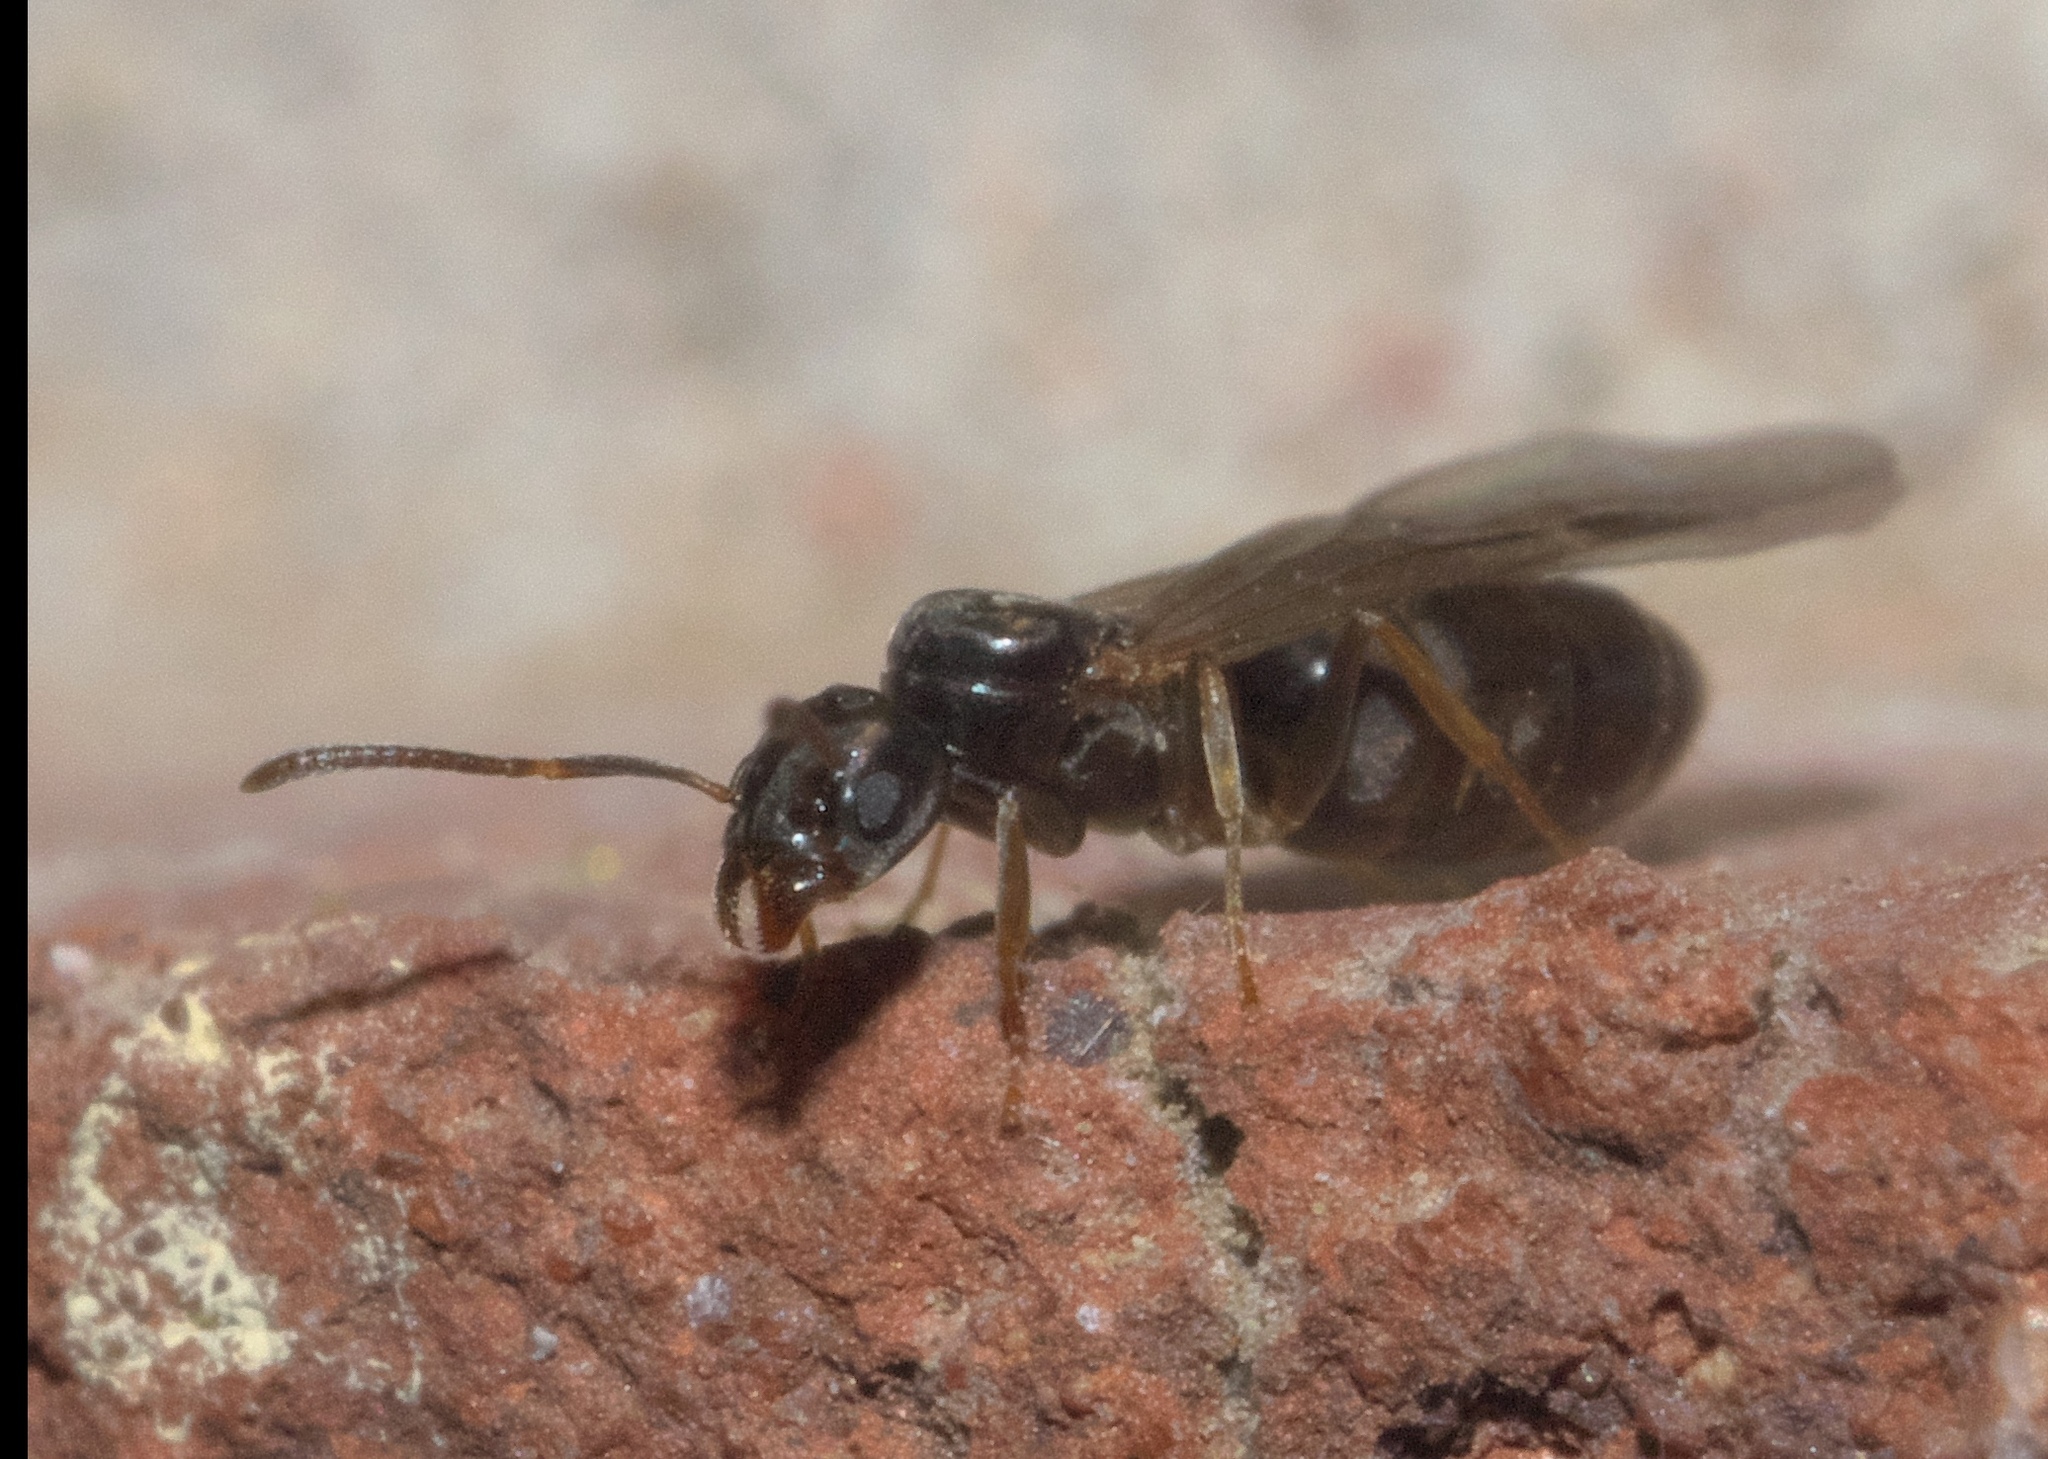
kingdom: Animalia
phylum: Arthropoda
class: Insecta
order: Hymenoptera
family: Formicidae
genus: Tapinoma
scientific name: Tapinoma sessile
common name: Odorous house ant
